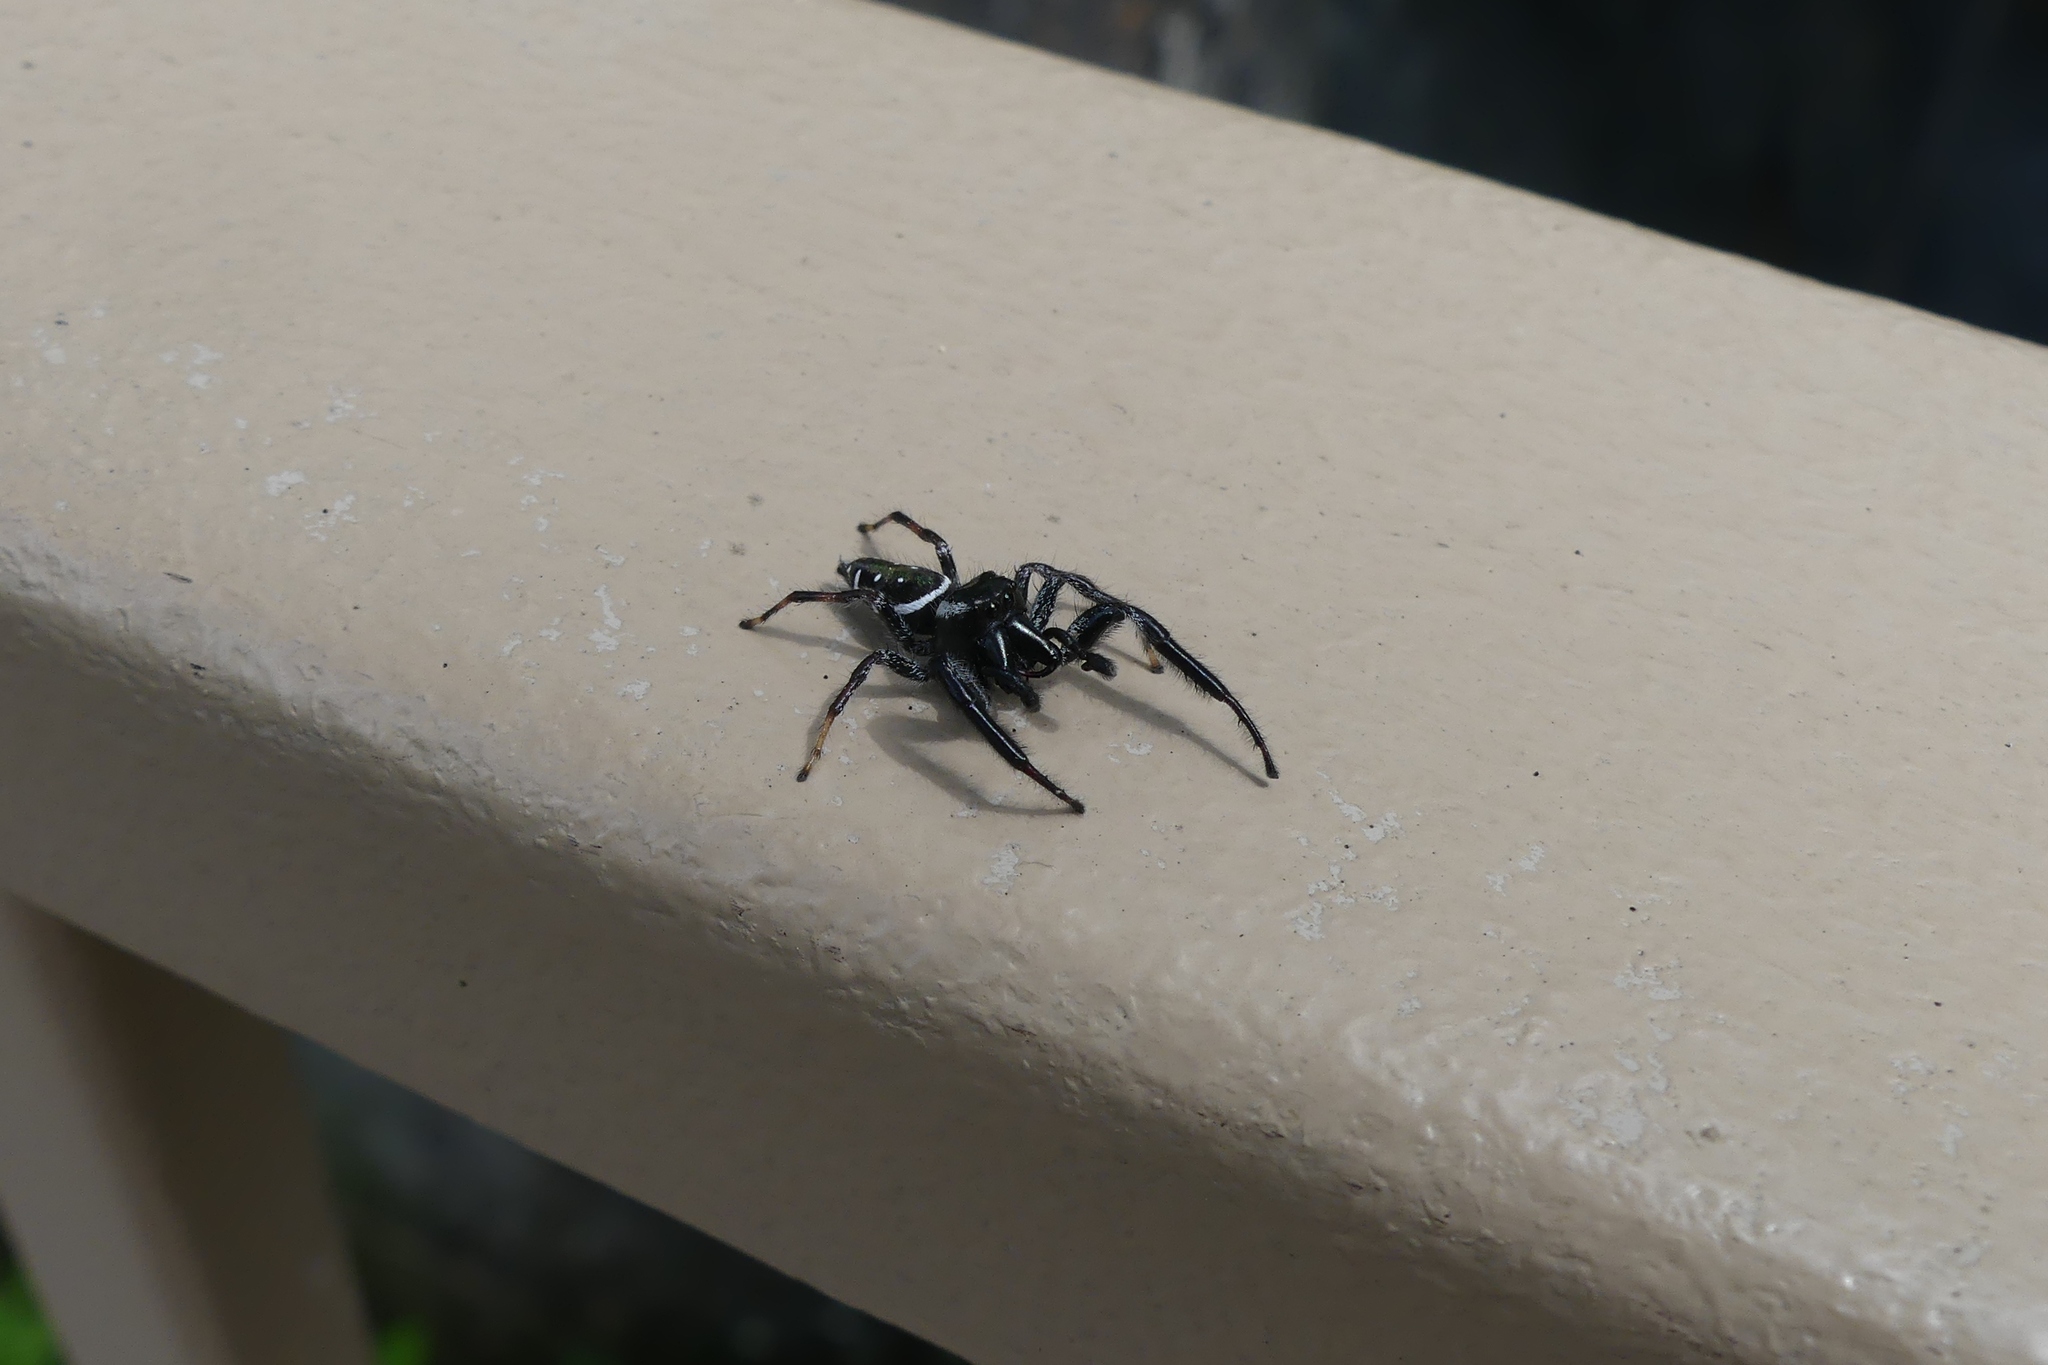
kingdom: Animalia
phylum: Arthropoda
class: Arachnida
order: Araneae
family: Salticidae
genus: Paraphidippus
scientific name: Paraphidippus aurantius
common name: Jumping spiders
